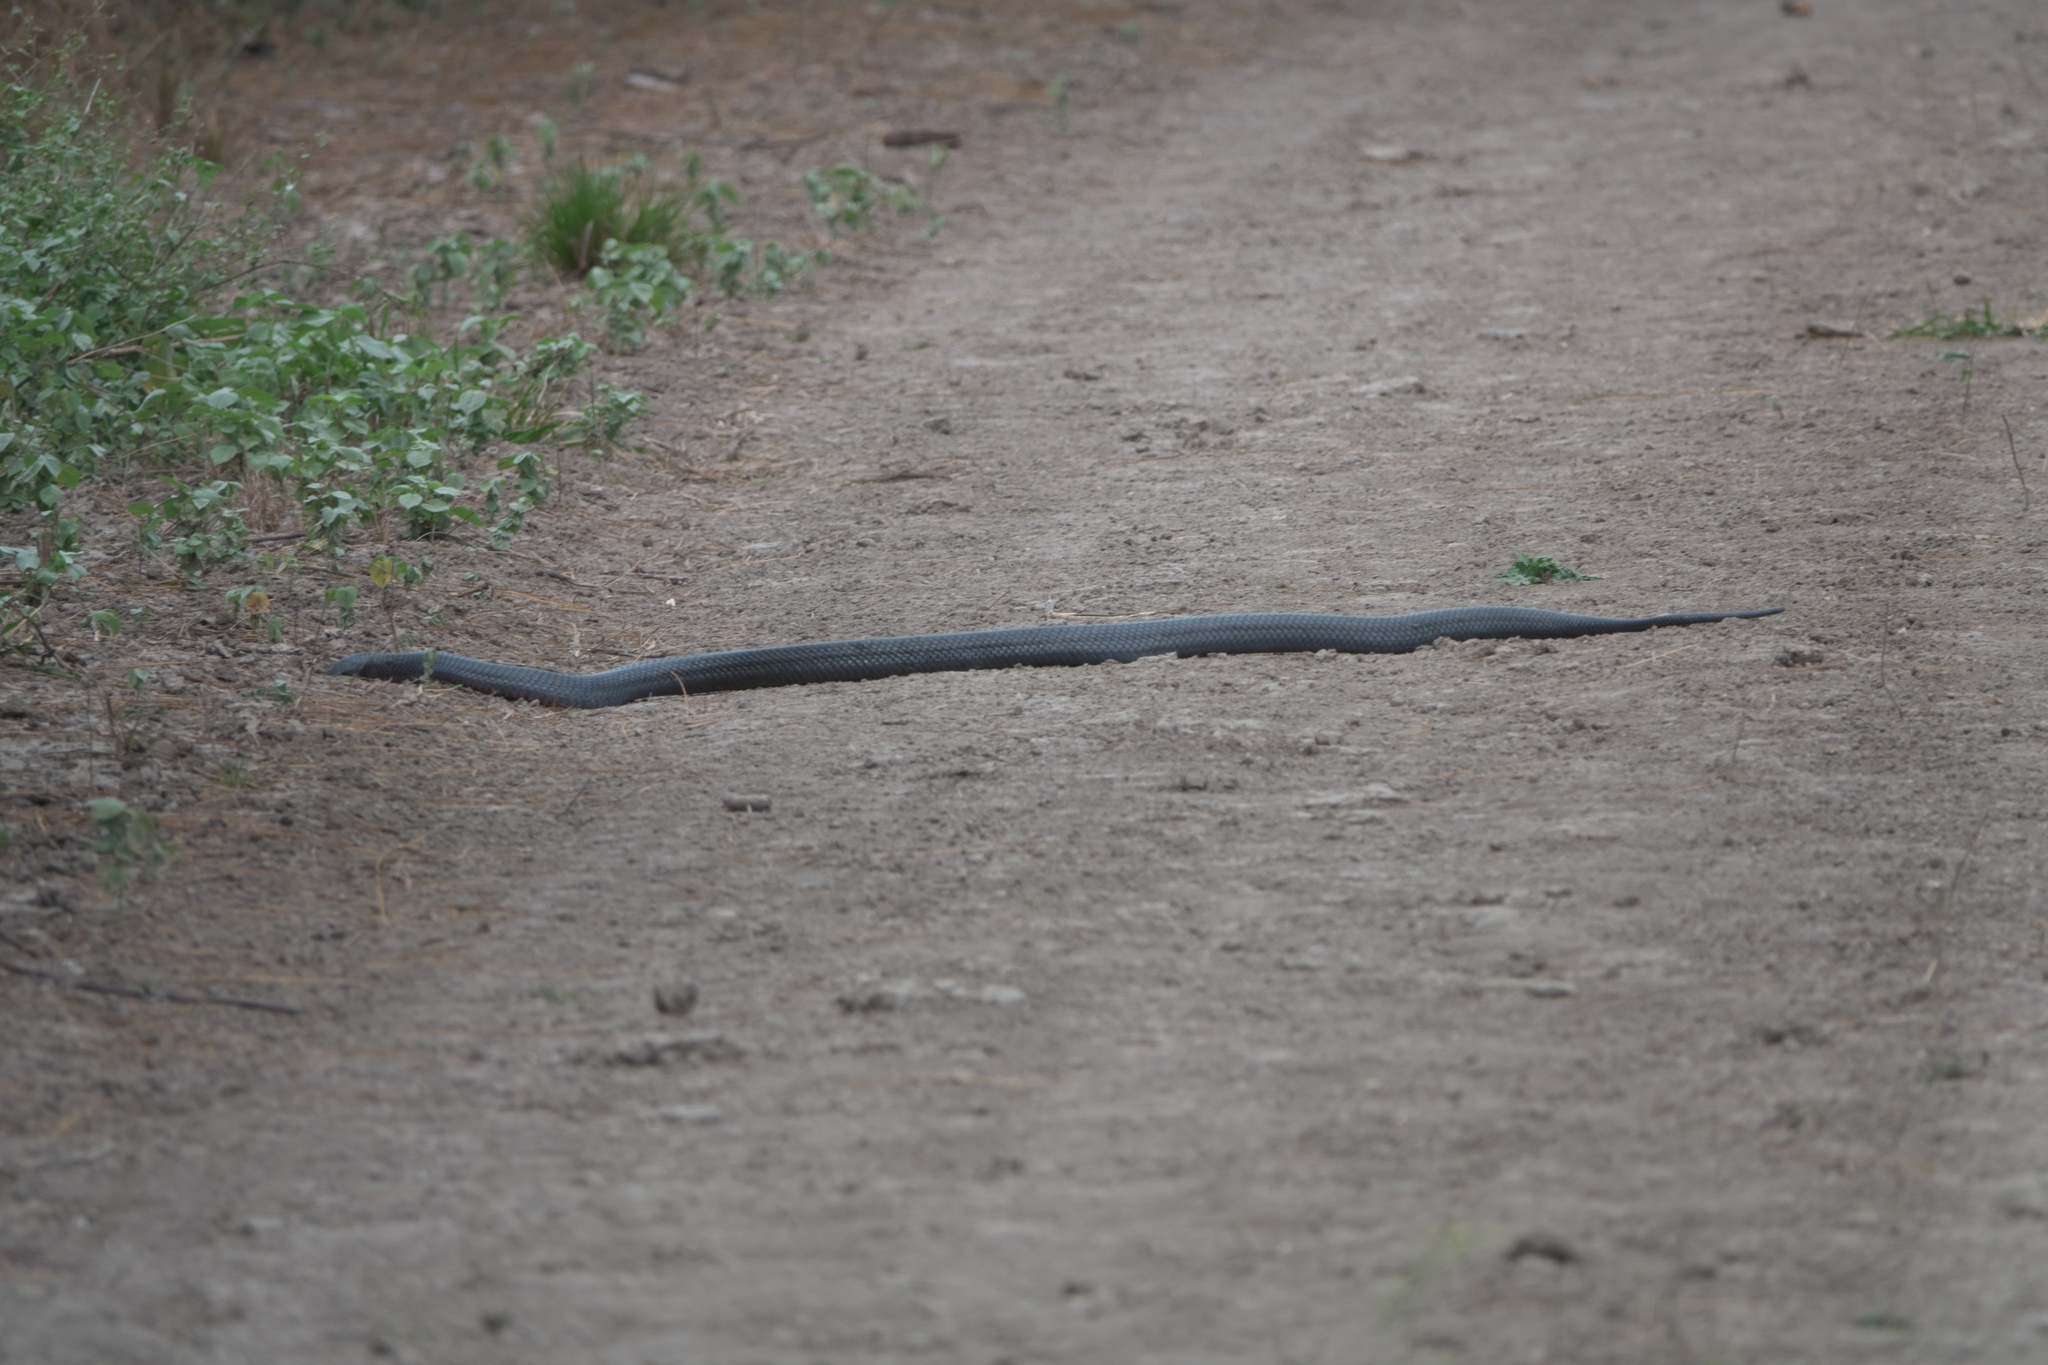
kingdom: Animalia
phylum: Chordata
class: Squamata
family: Colubridae
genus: Drymarchon
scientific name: Drymarchon melanurus
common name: Central american indigo snake
